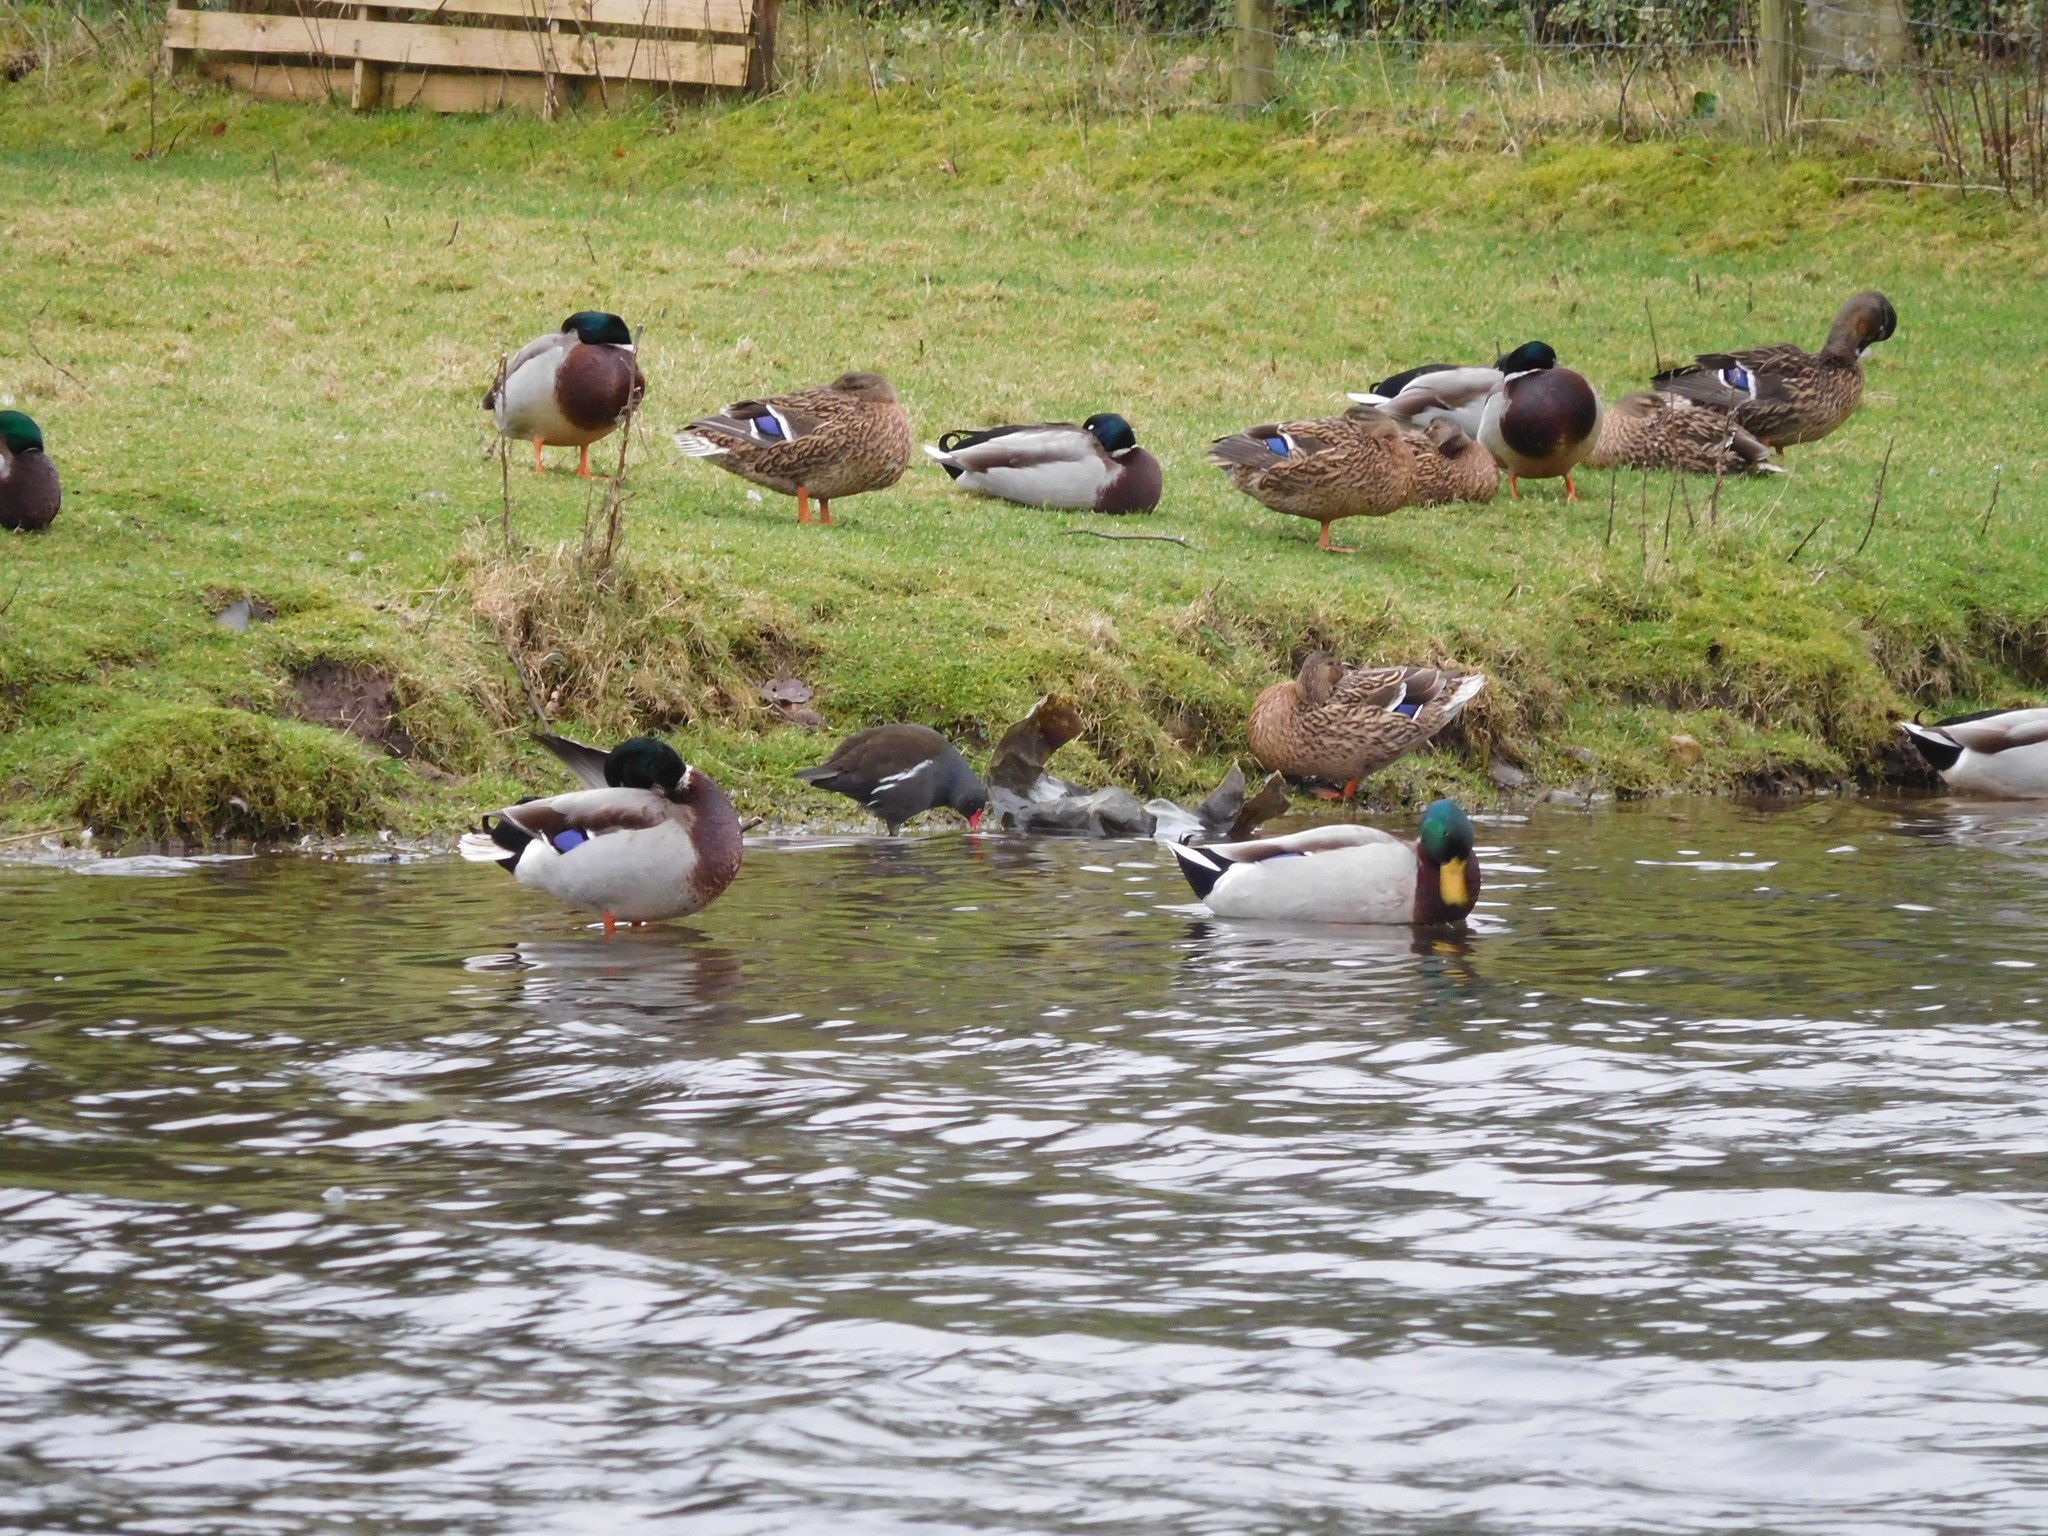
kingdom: Animalia
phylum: Chordata
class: Aves
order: Anseriformes
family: Anatidae
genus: Anas
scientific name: Anas platyrhynchos
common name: Mallard
